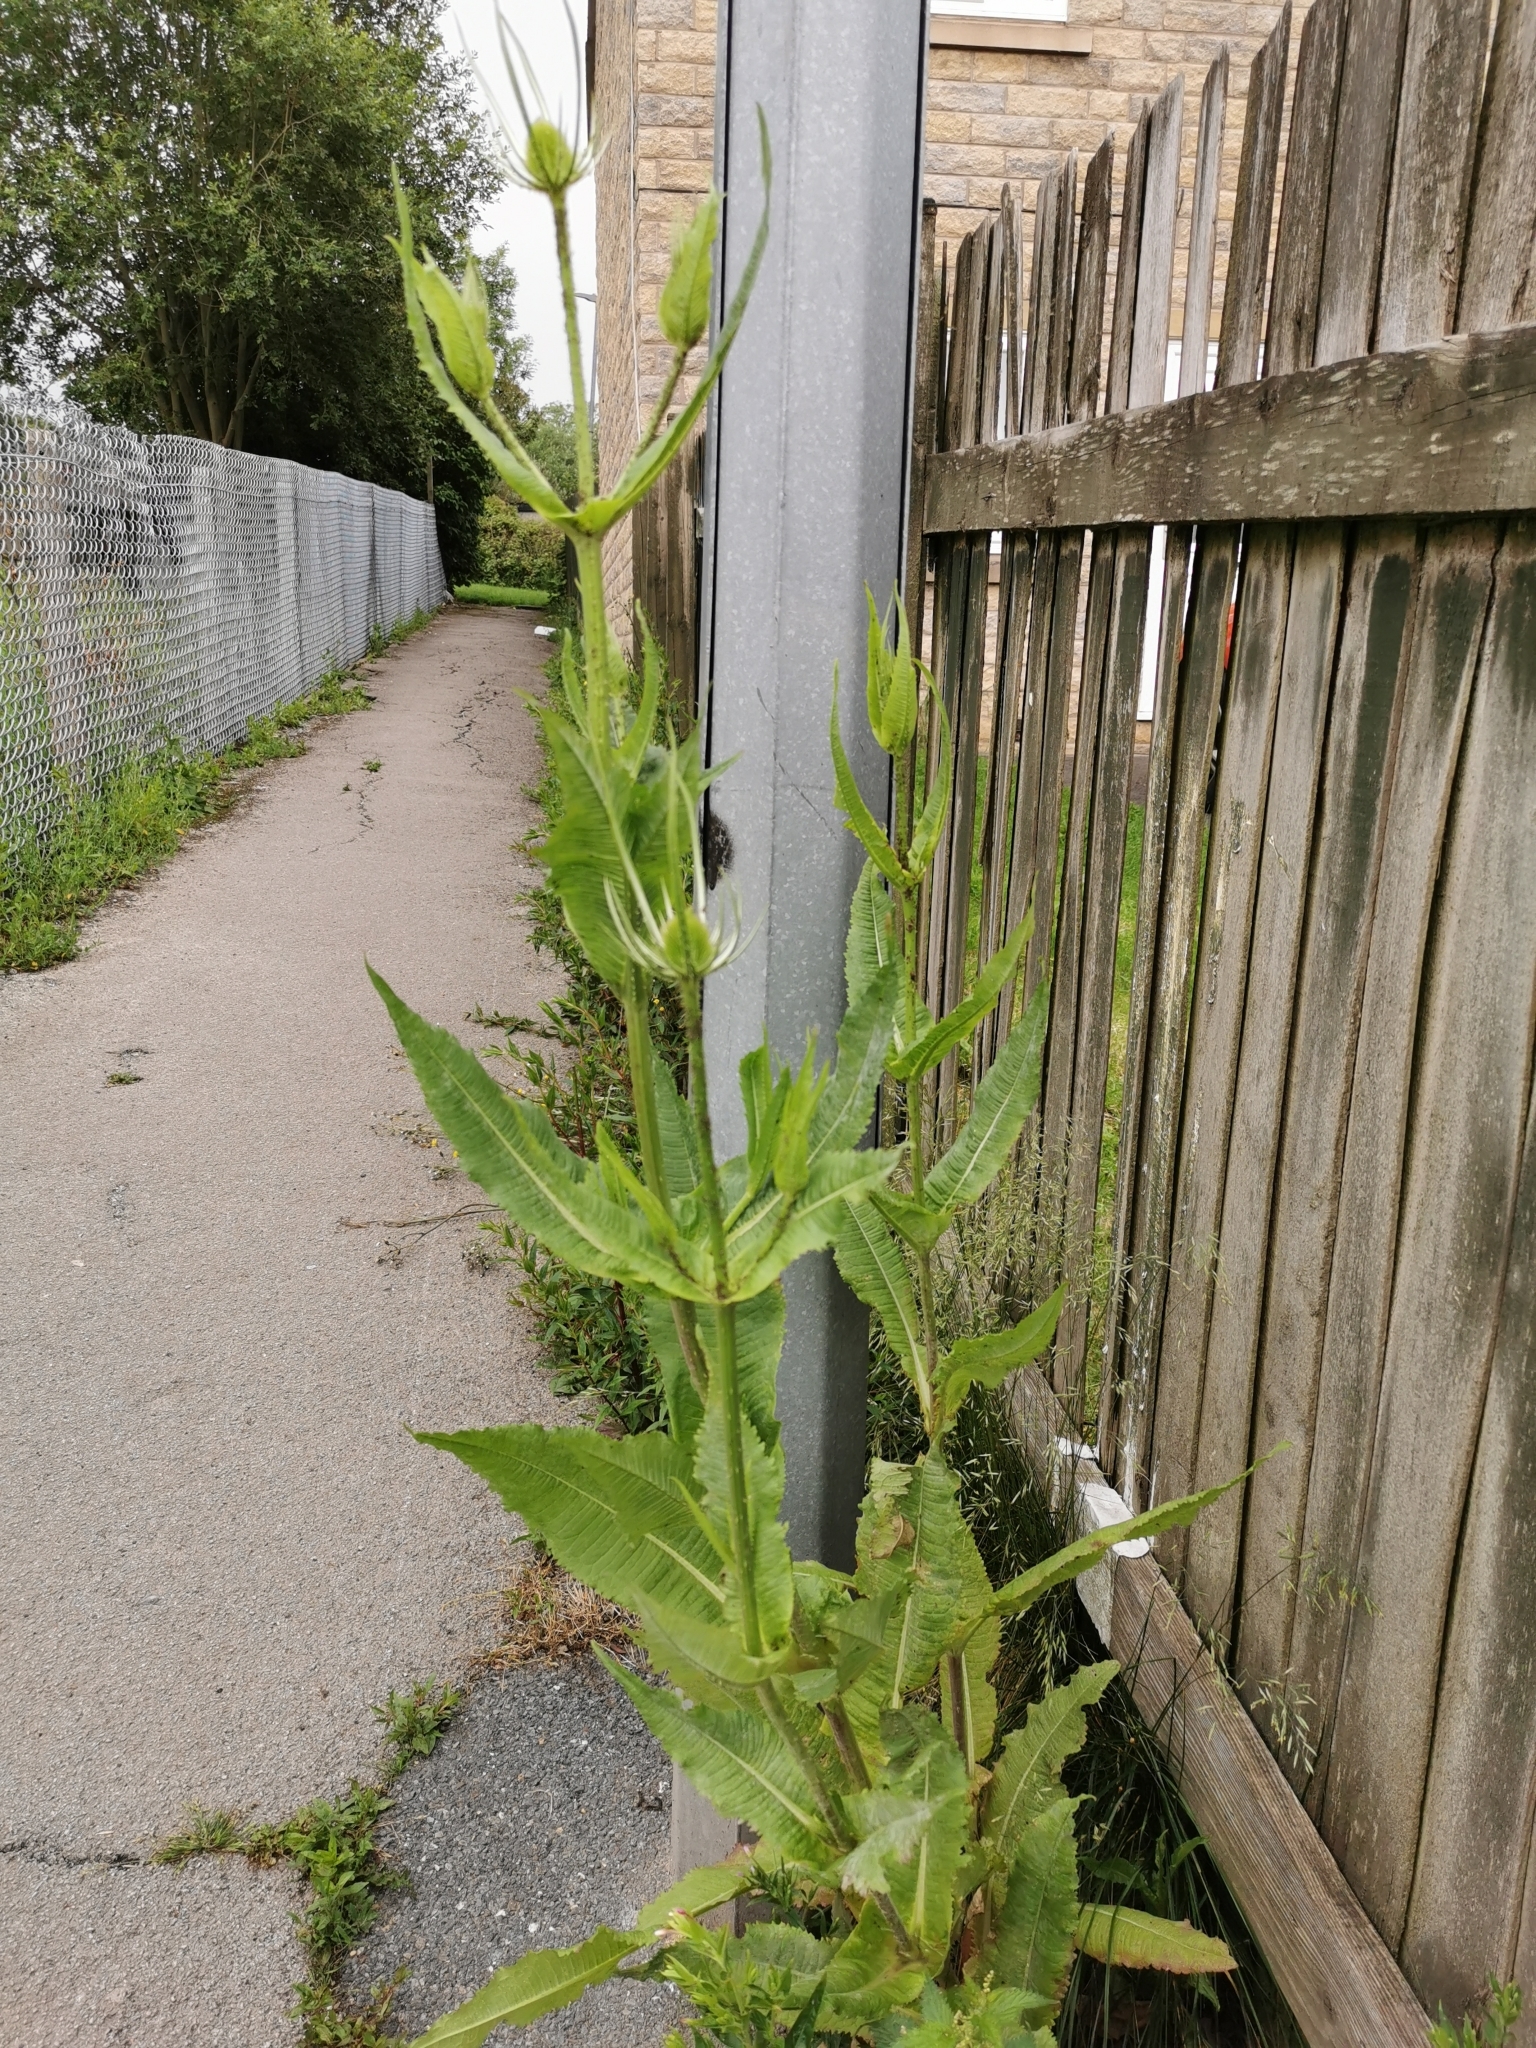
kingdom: Plantae
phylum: Tracheophyta
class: Magnoliopsida
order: Dipsacales
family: Caprifoliaceae
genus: Dipsacus
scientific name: Dipsacus fullonum
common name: Teasel
